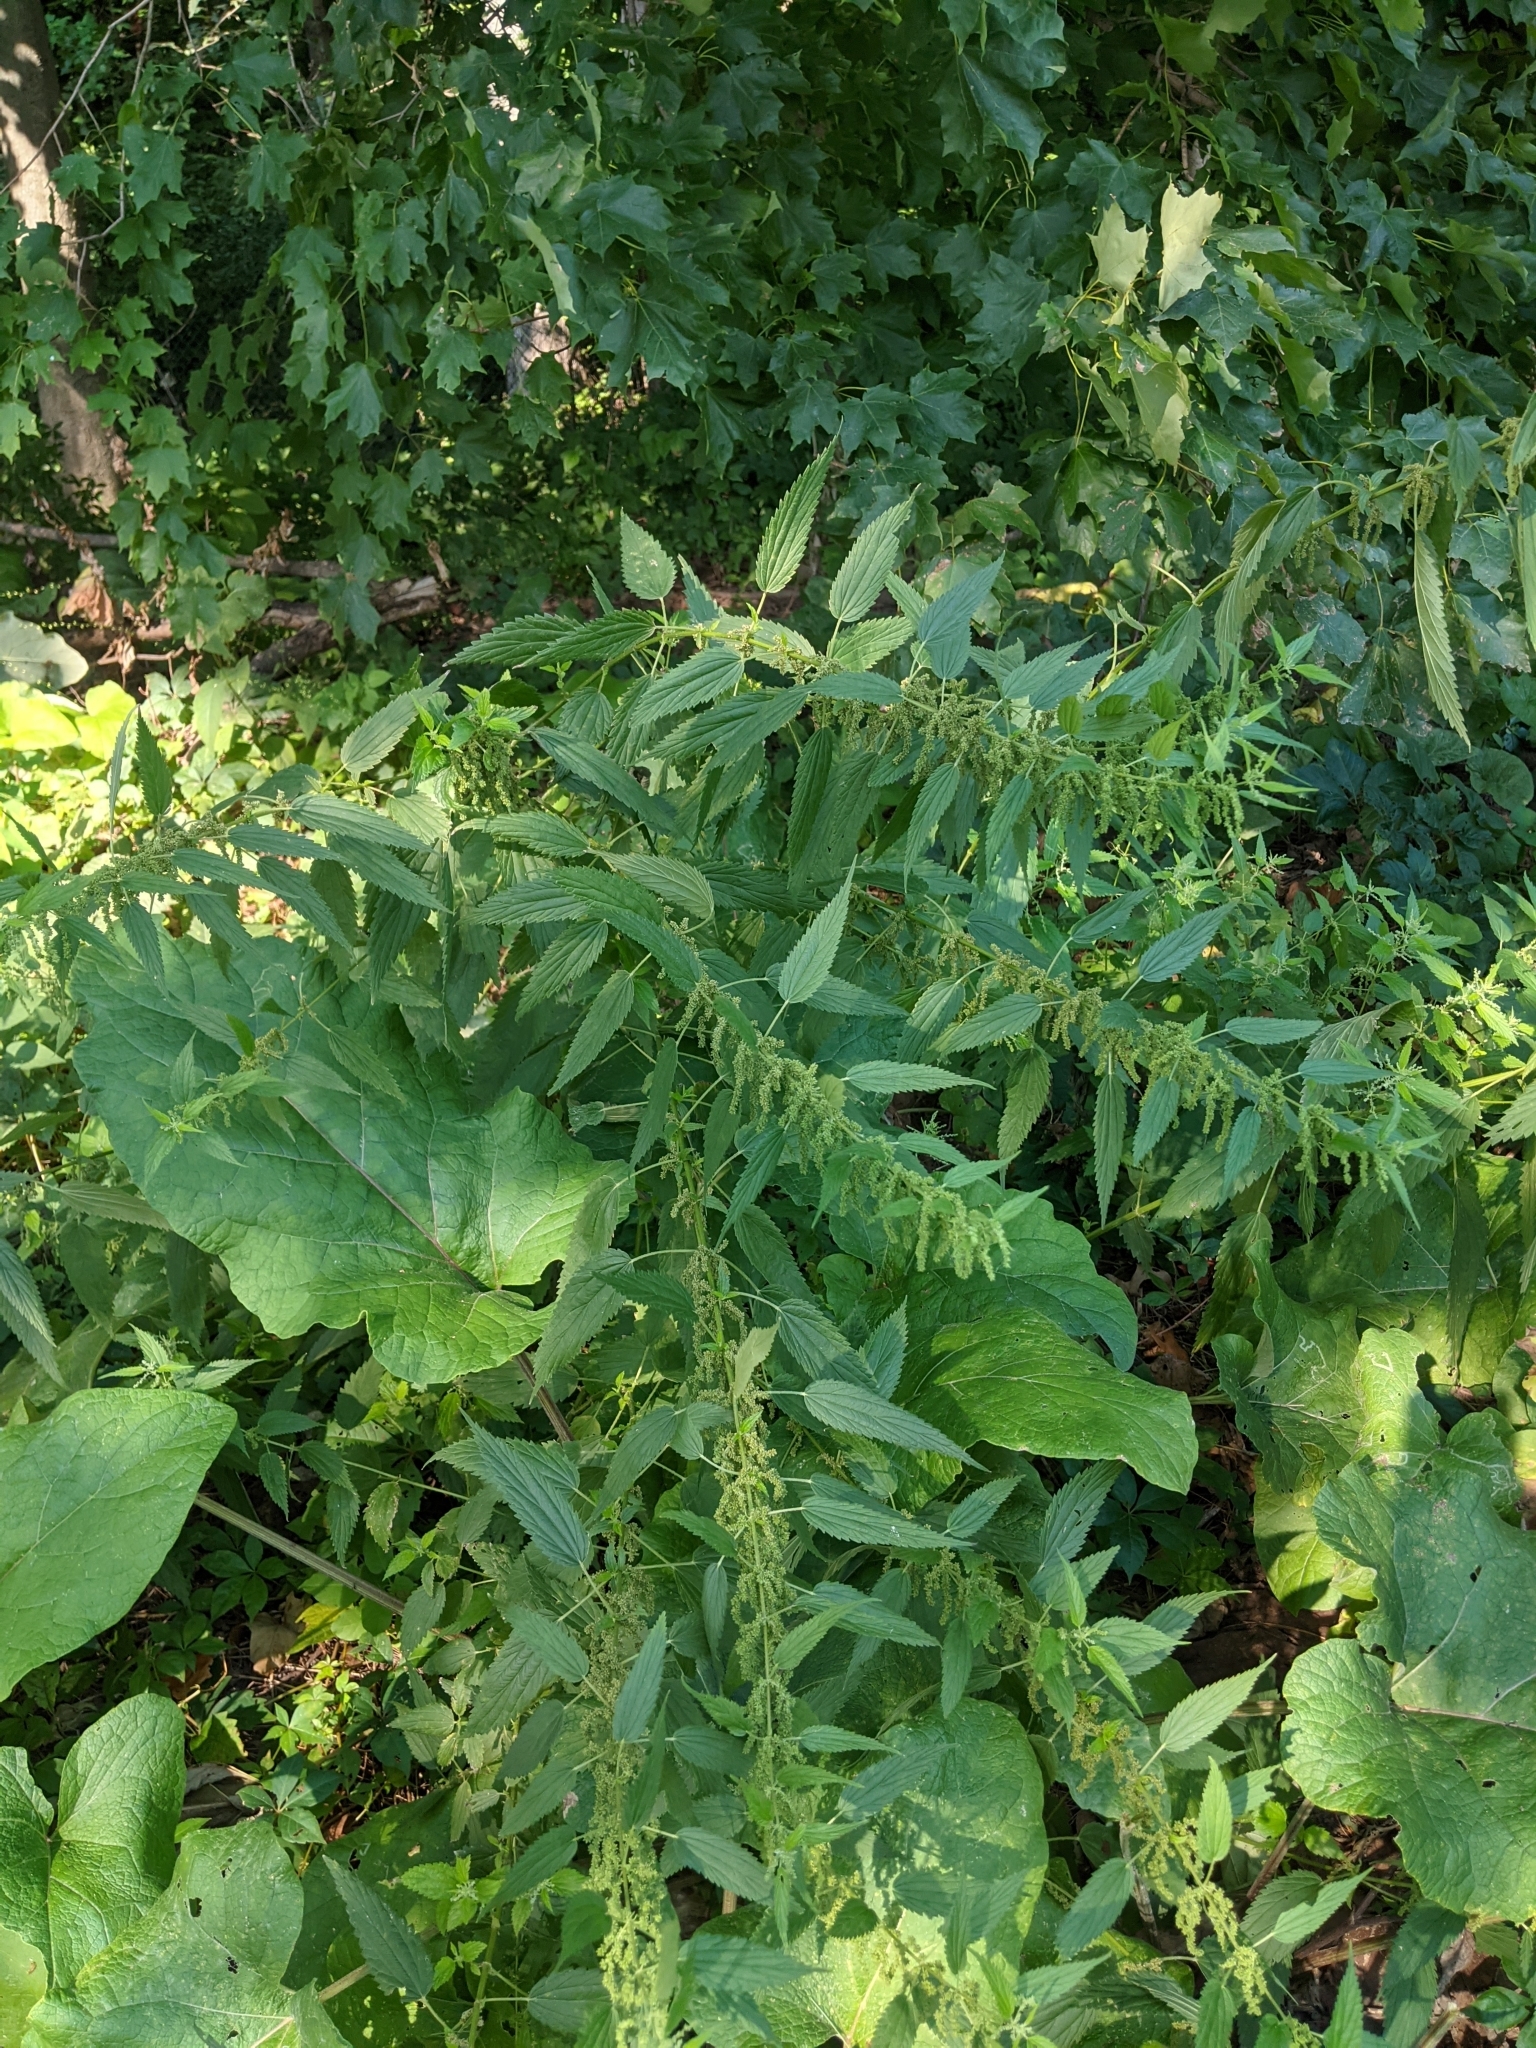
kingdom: Plantae
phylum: Tracheophyta
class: Magnoliopsida
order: Rosales
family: Urticaceae
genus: Urtica
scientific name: Urtica dioica
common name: Common nettle
